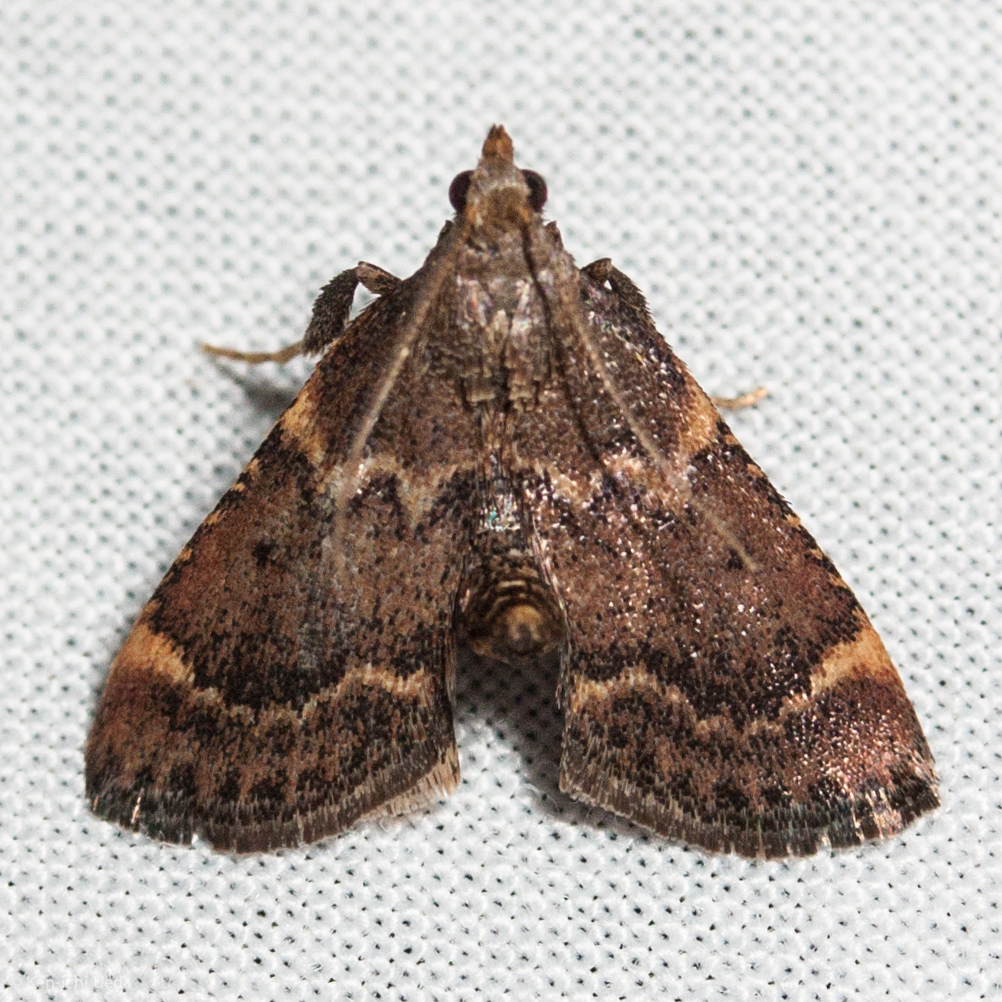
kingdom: Animalia
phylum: Arthropoda
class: Insecta
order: Lepidoptera
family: Pyralidae
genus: Hypsopygia
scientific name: Hypsopygia phoezalis
